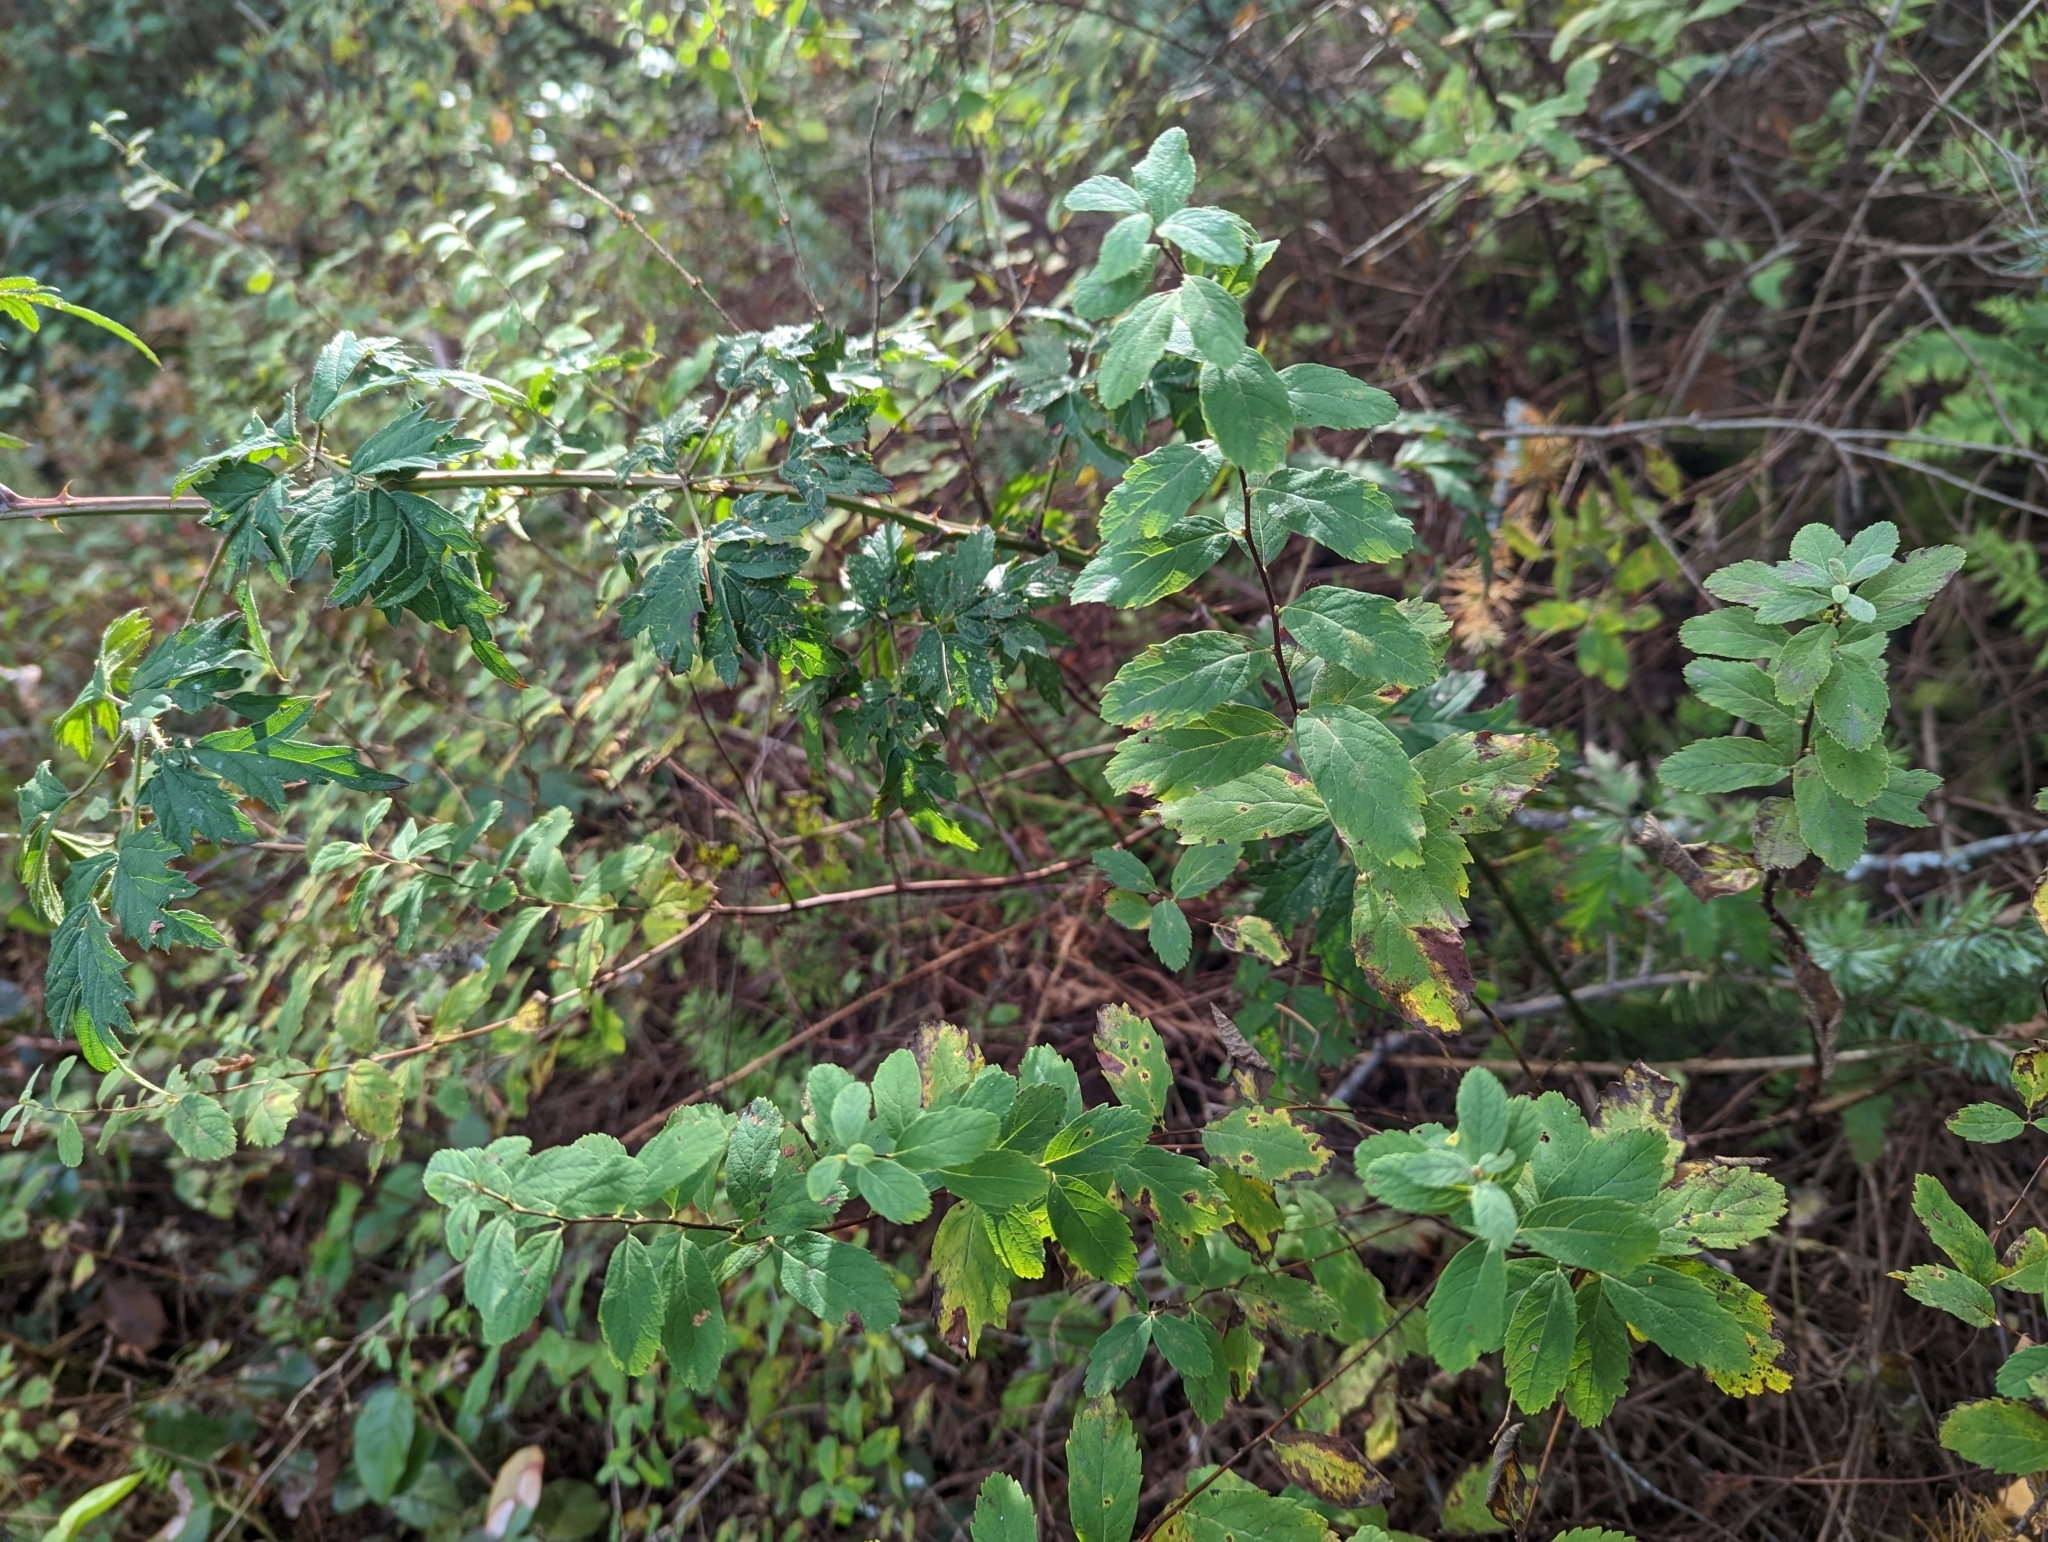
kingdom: Plantae
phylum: Tracheophyta
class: Magnoliopsida
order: Rosales
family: Rosaceae
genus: Spiraea
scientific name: Spiraea douglasii
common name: Steeplebush
